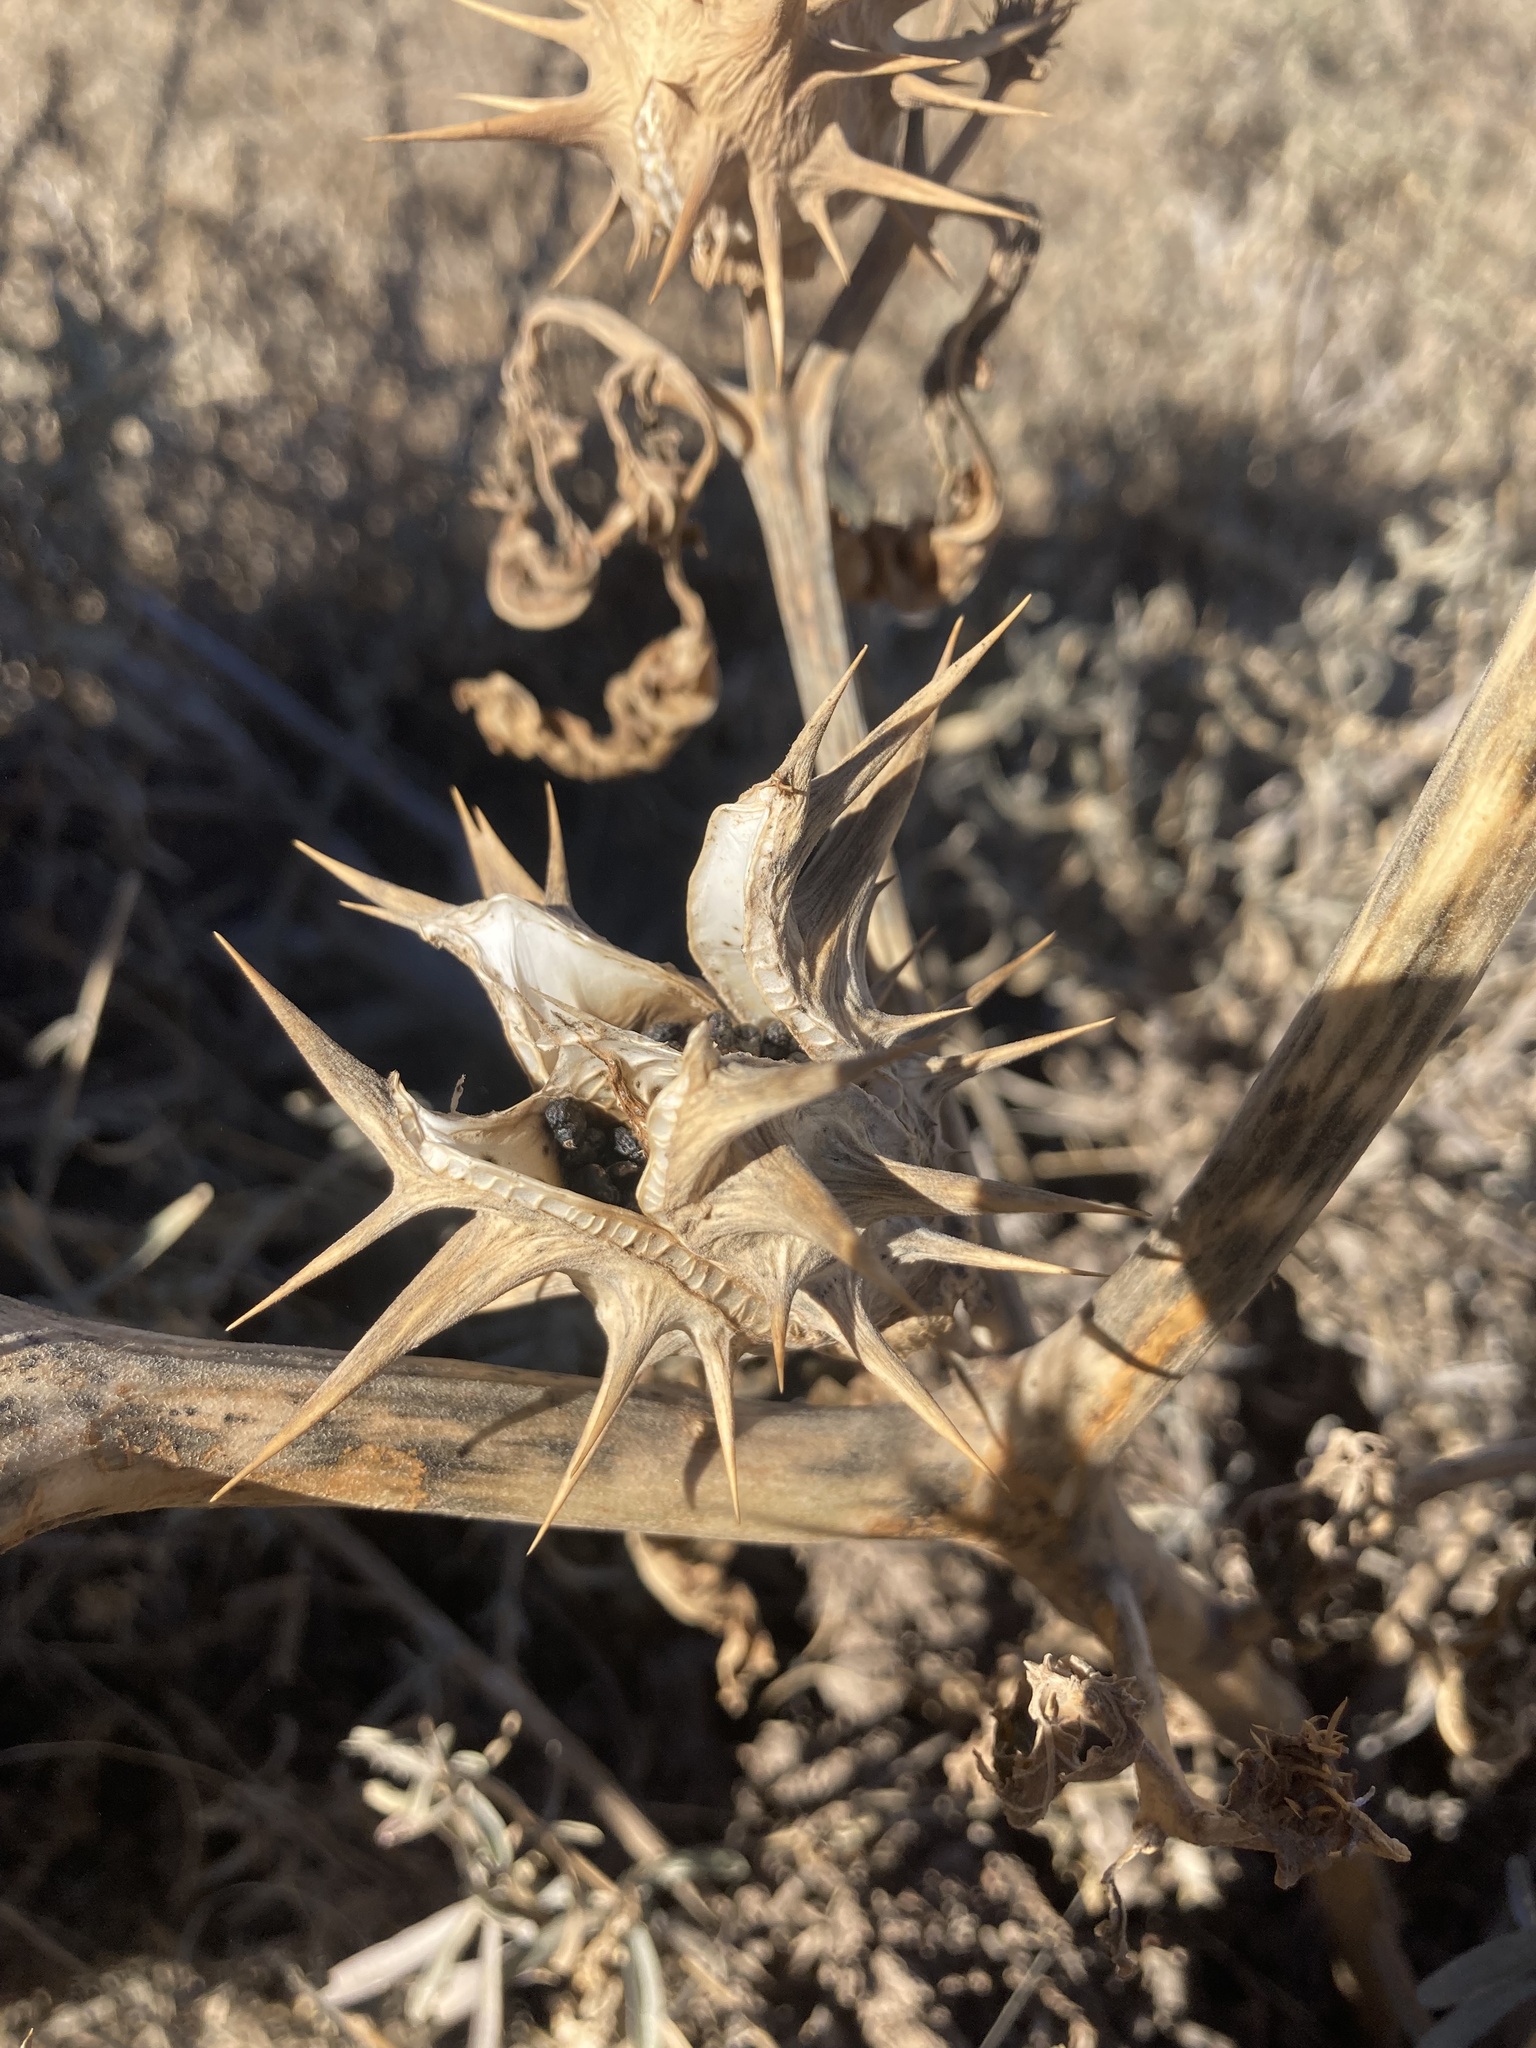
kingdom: Plantae
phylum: Tracheophyta
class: Magnoliopsida
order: Solanales
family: Solanaceae
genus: Datura
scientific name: Datura quercifolia
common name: Oak-leaf datura
